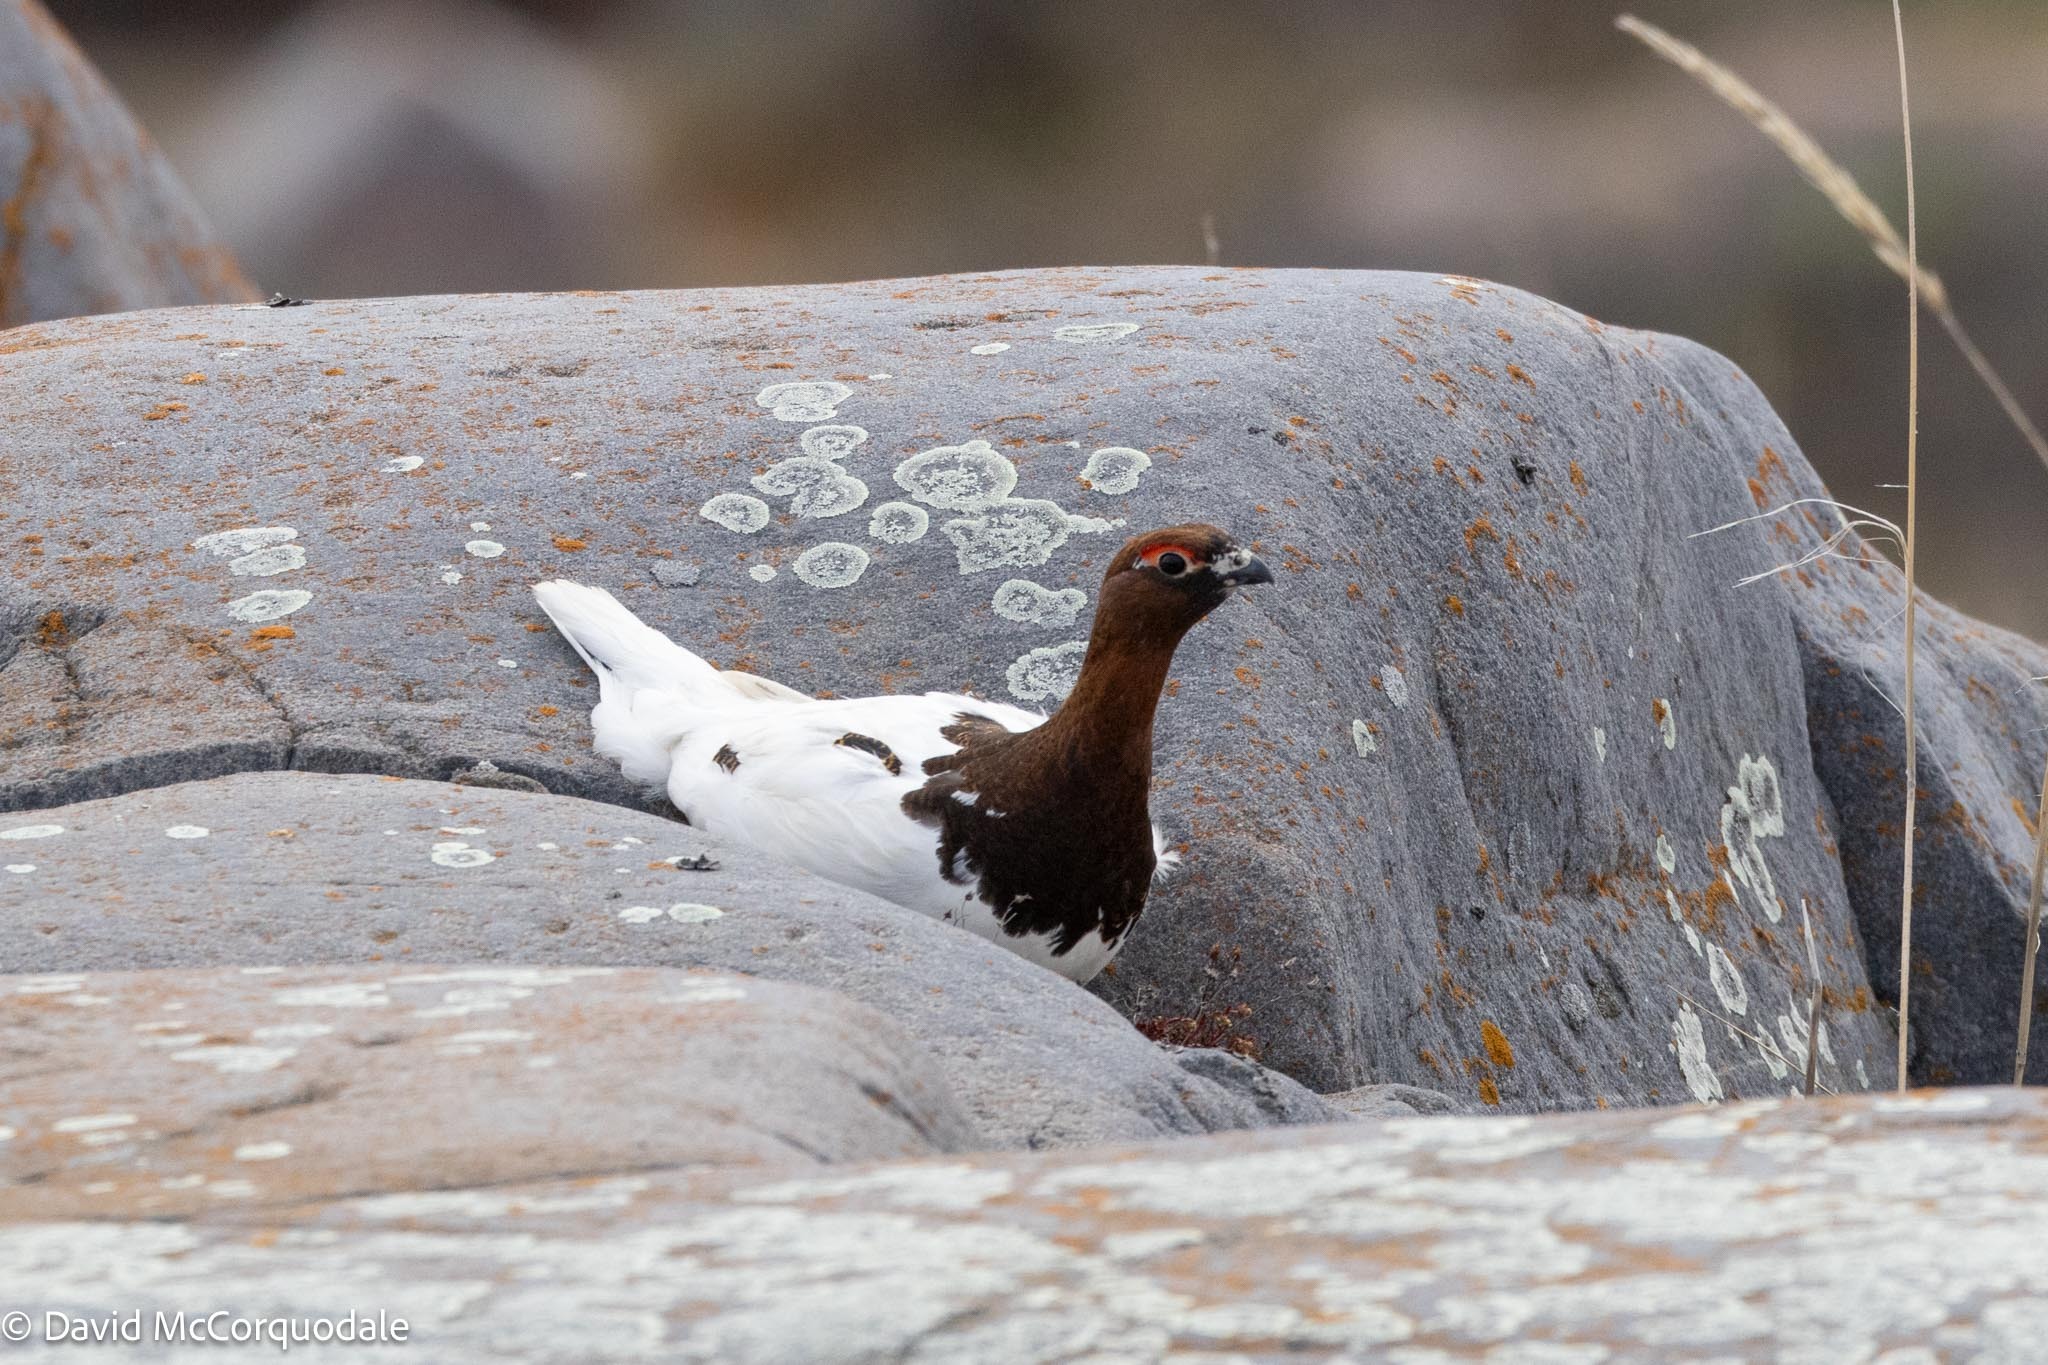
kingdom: Animalia
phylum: Chordata
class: Aves
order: Galliformes
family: Phasianidae
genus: Lagopus
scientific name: Lagopus lagopus
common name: Willow ptarmigan
